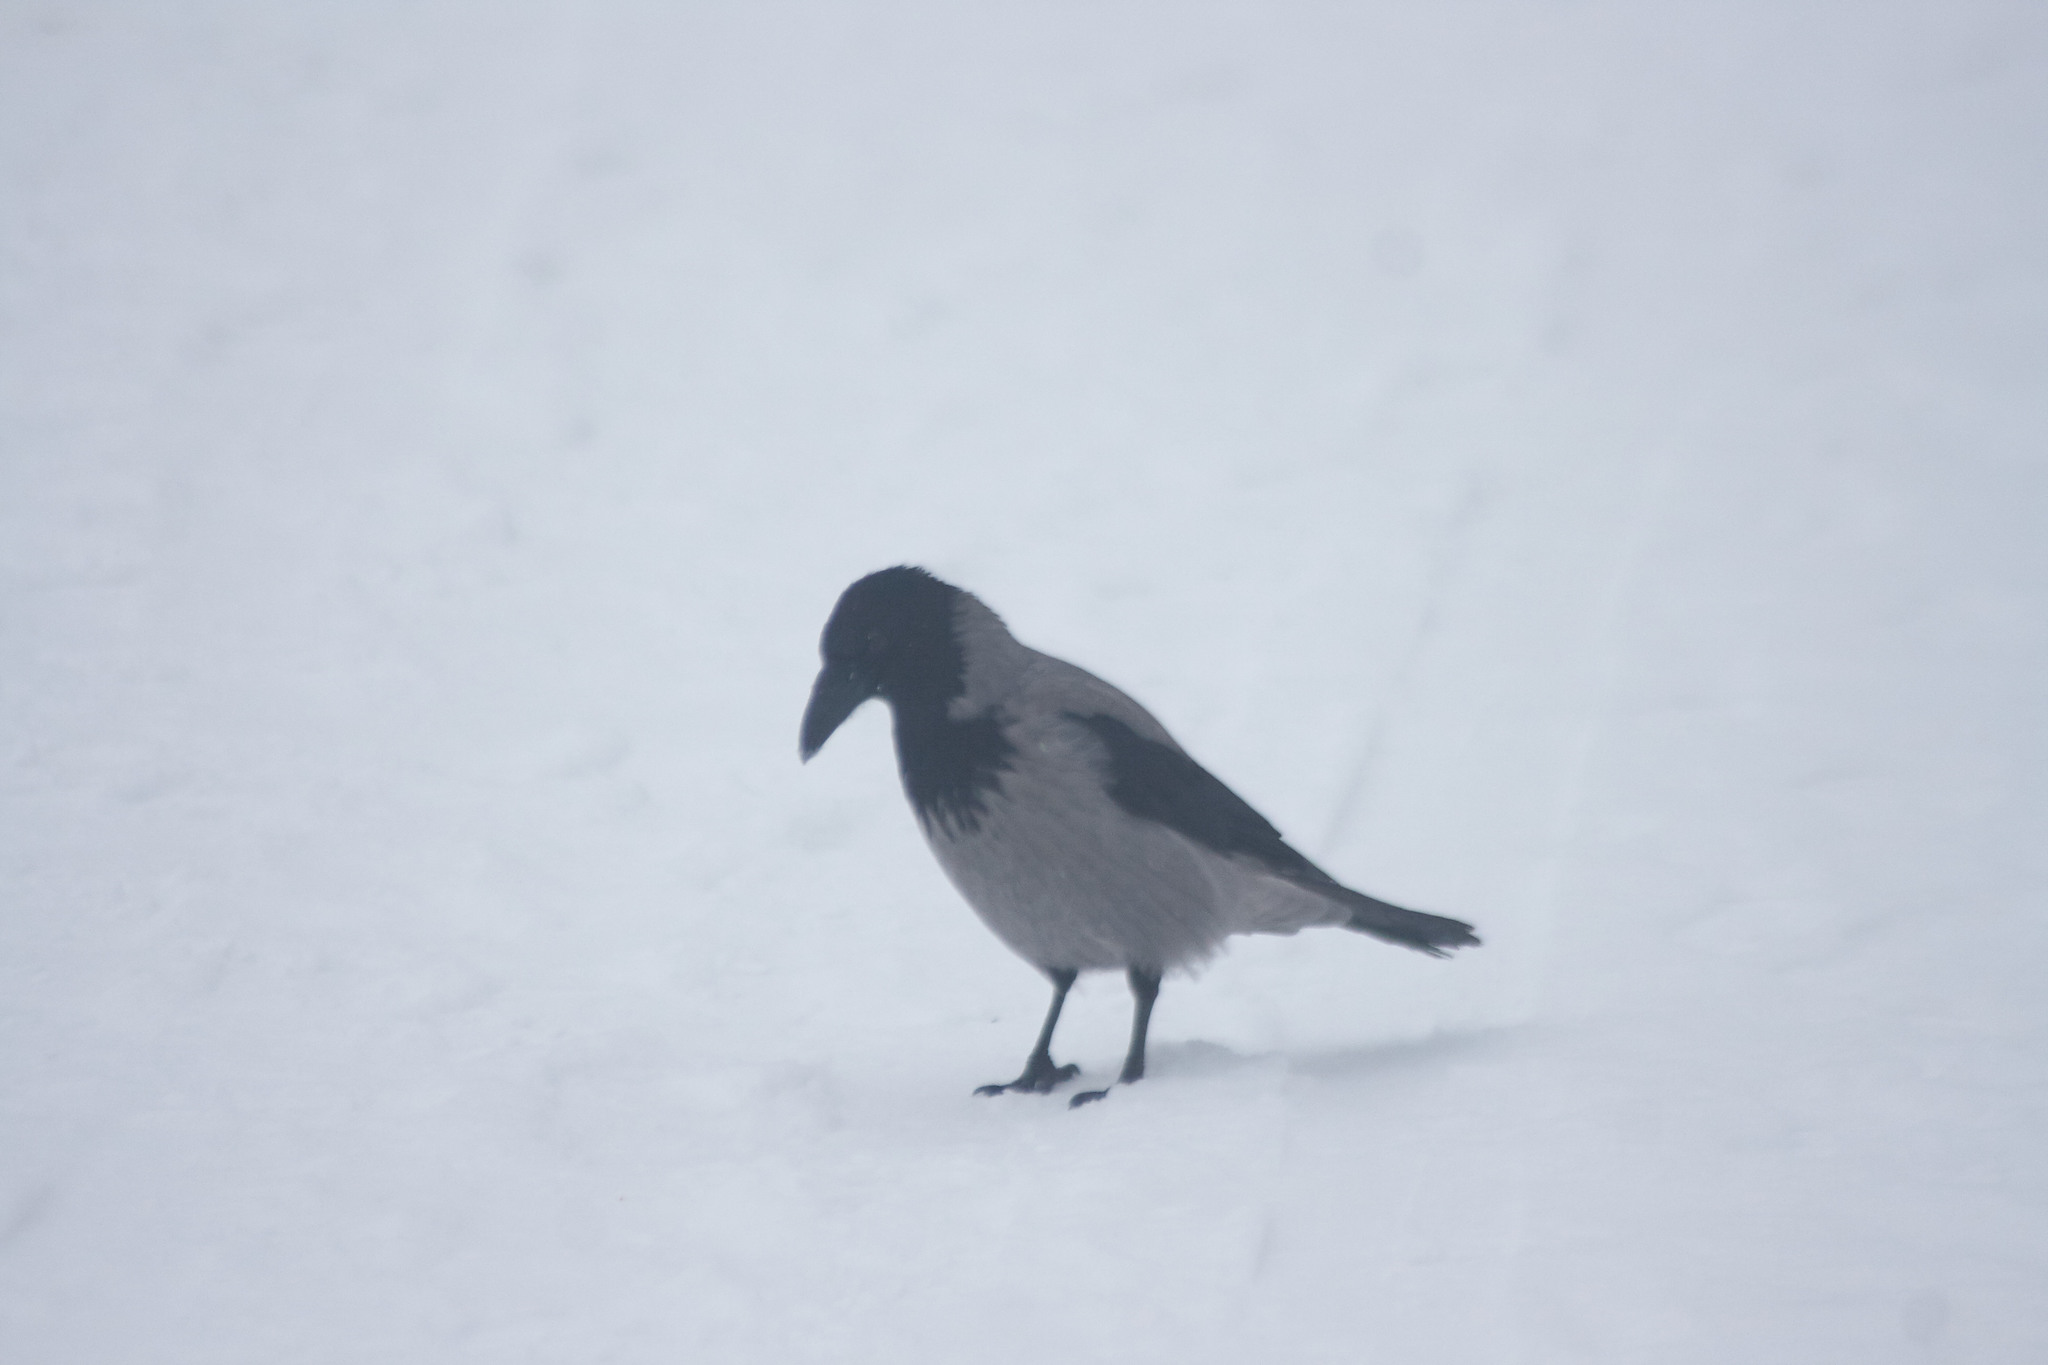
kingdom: Animalia
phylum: Chordata
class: Aves
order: Passeriformes
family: Corvidae
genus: Corvus
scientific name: Corvus cornix
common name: Hooded crow
